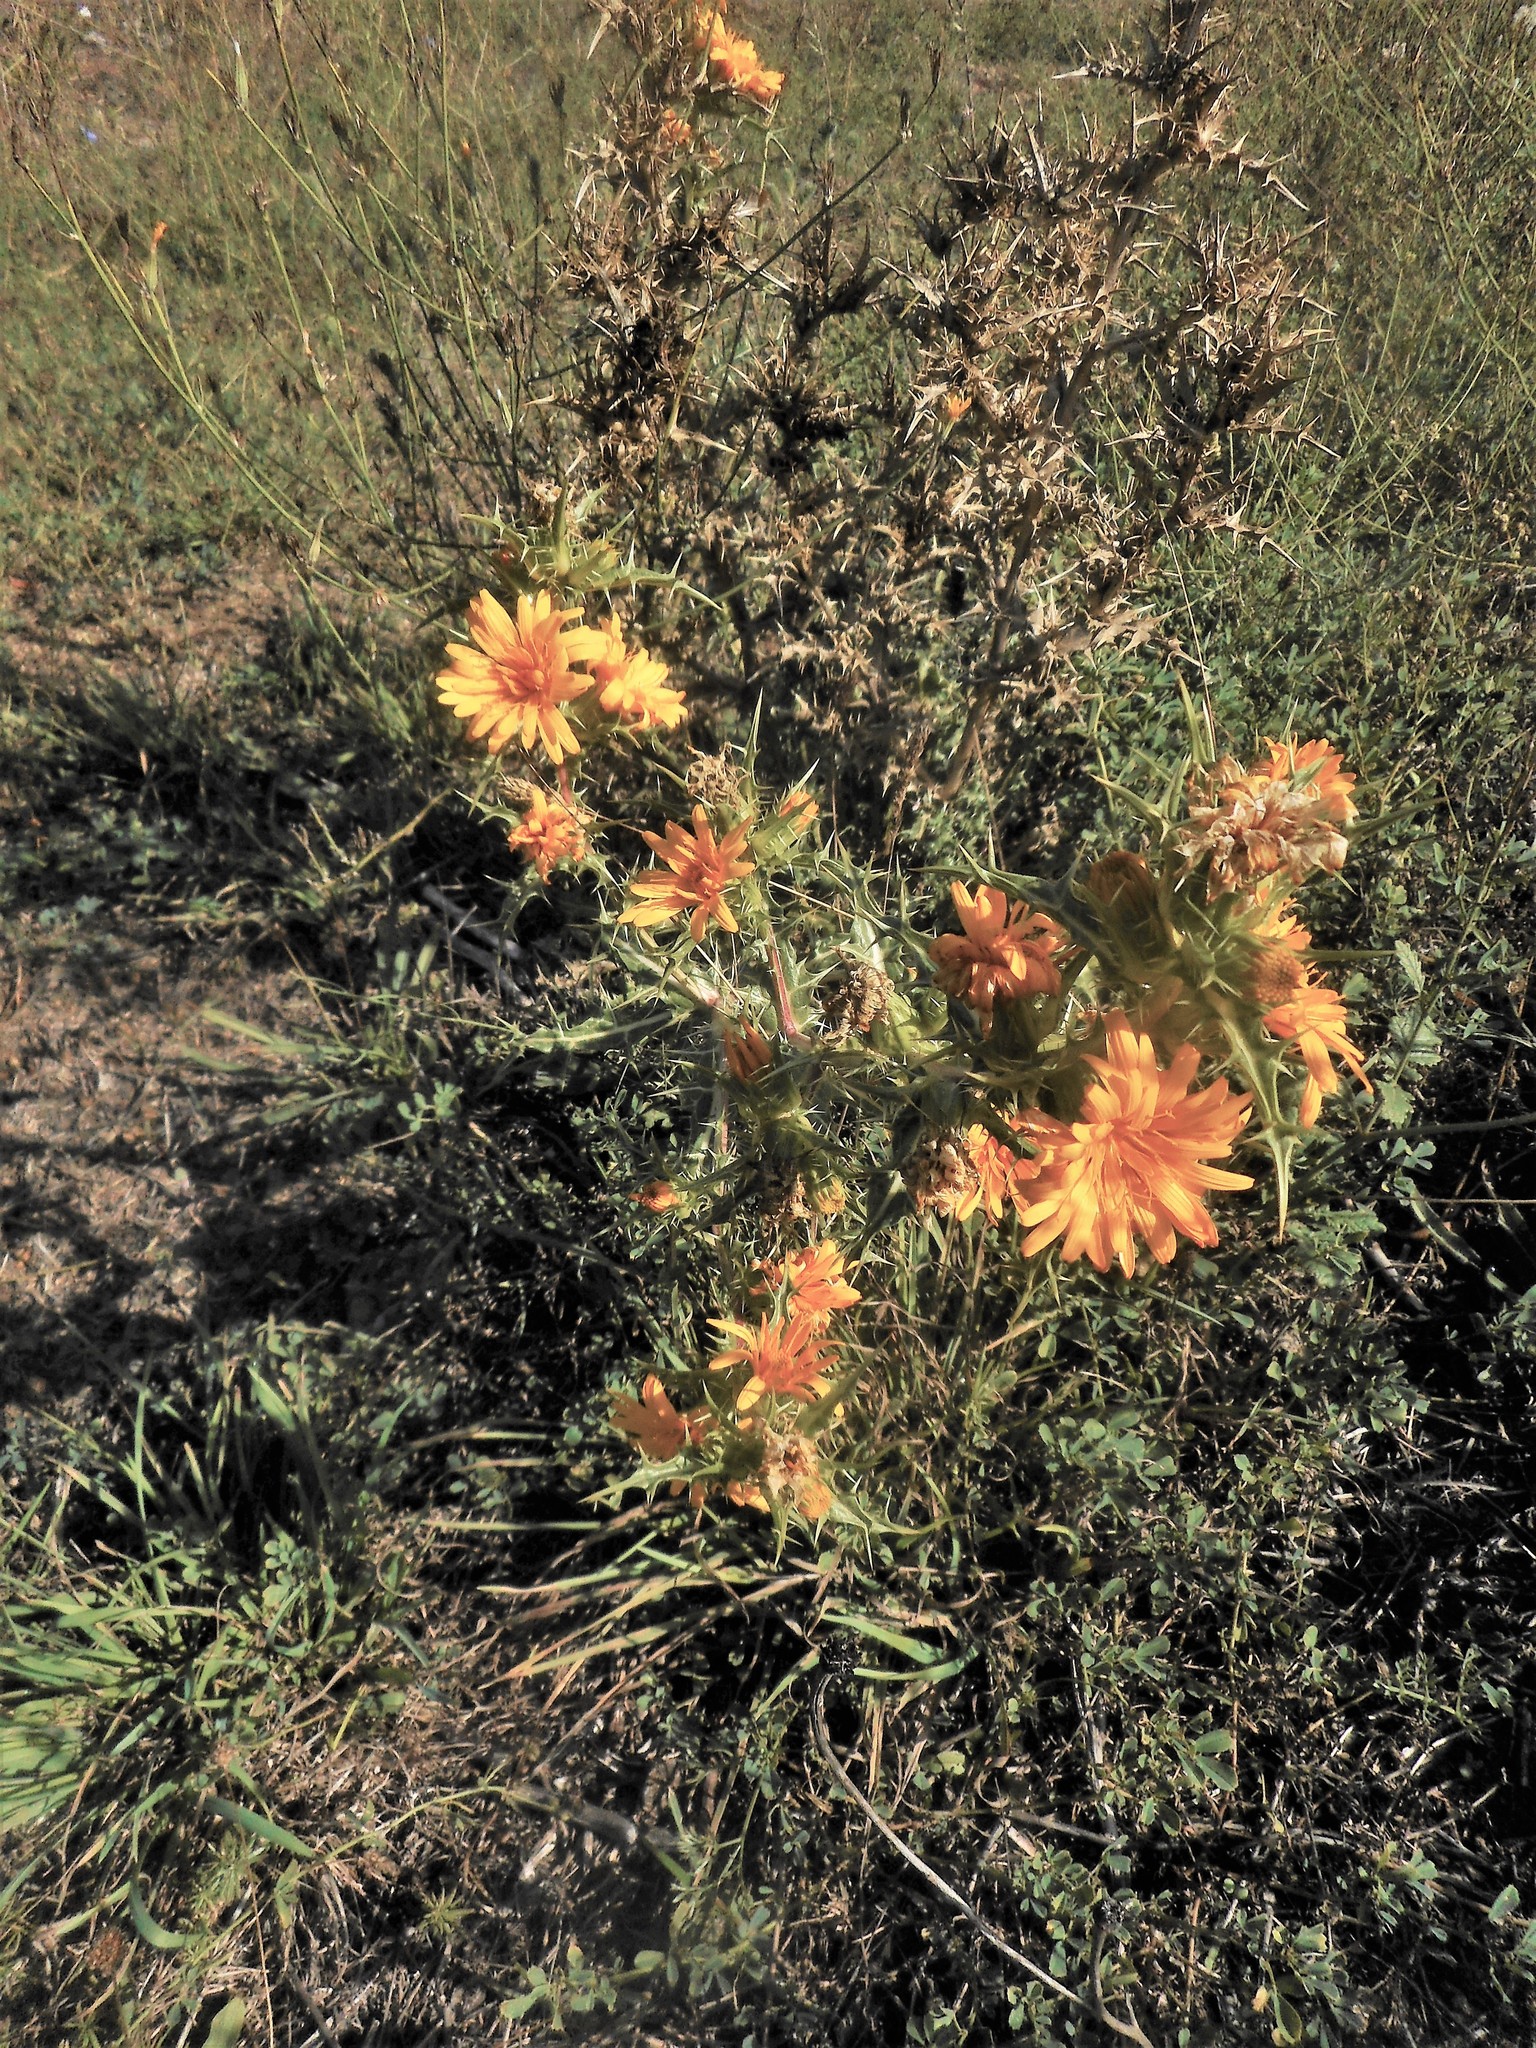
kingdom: Plantae
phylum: Tracheophyta
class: Magnoliopsida
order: Asterales
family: Asteraceae
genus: Scolymus
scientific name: Scolymus hispanicus
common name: Golden thistle
